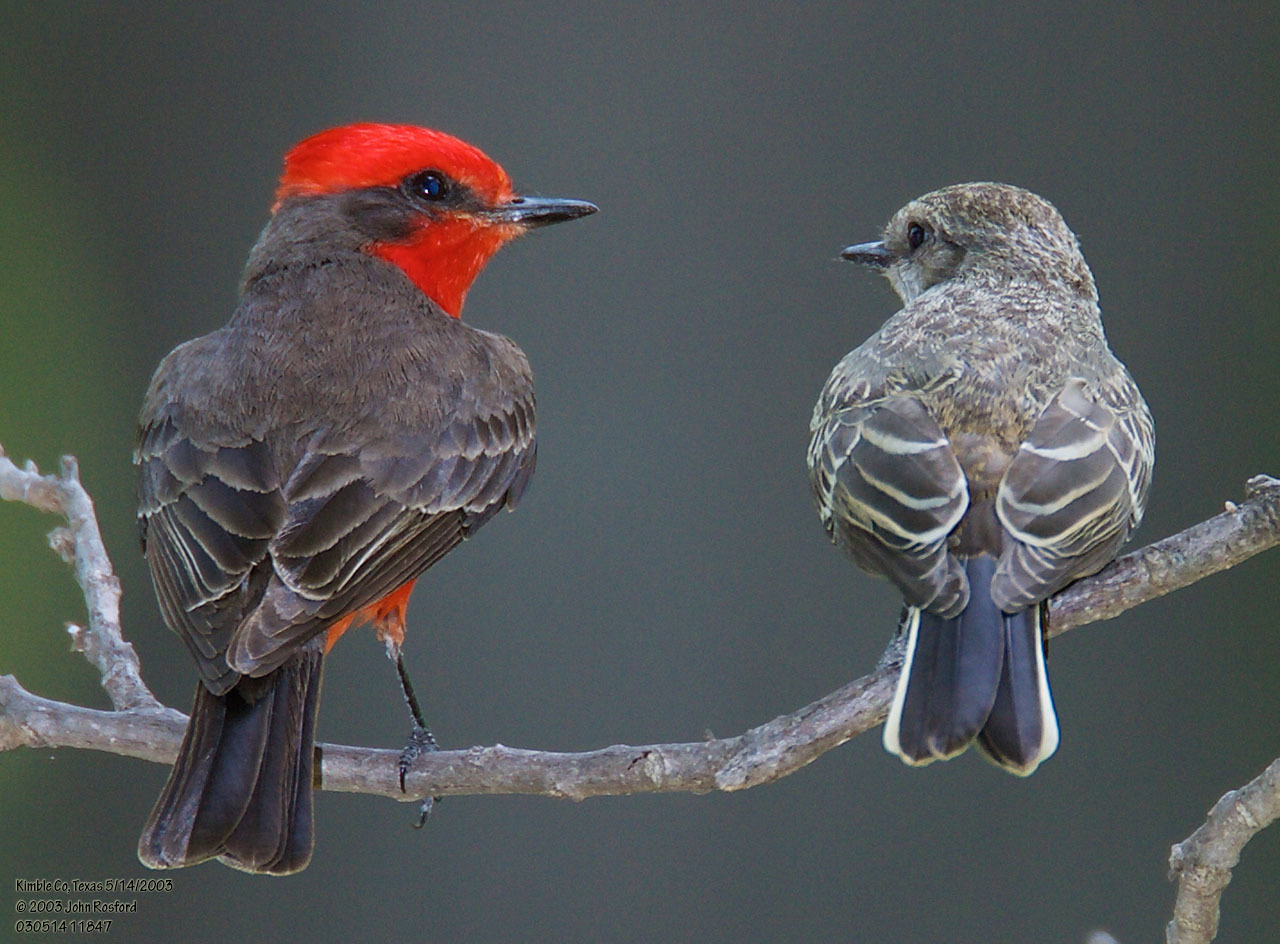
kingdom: Animalia
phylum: Chordata
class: Aves
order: Passeriformes
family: Tyrannidae
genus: Pyrocephalus
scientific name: Pyrocephalus rubinus
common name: Vermilion flycatcher
